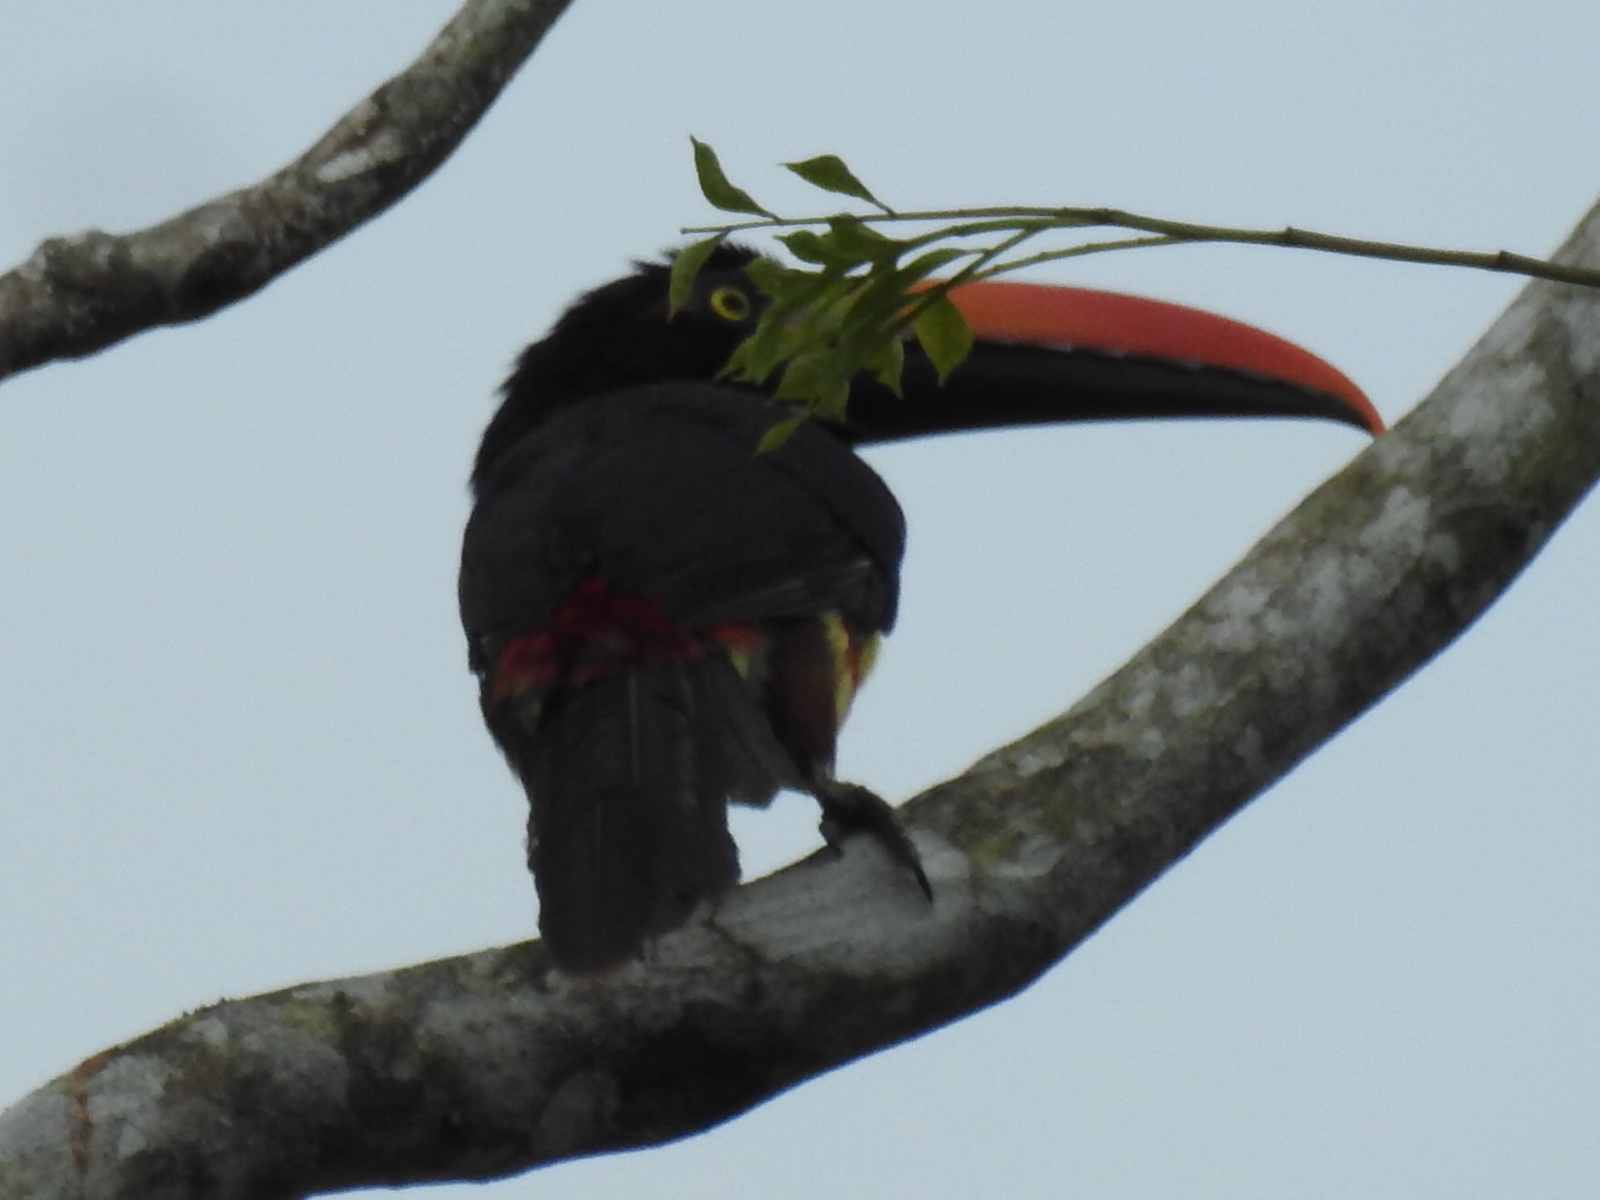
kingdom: Animalia
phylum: Chordata
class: Aves
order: Piciformes
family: Ramphastidae
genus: Pteroglossus
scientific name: Pteroglossus frantzii
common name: Fiery-billed aracari
